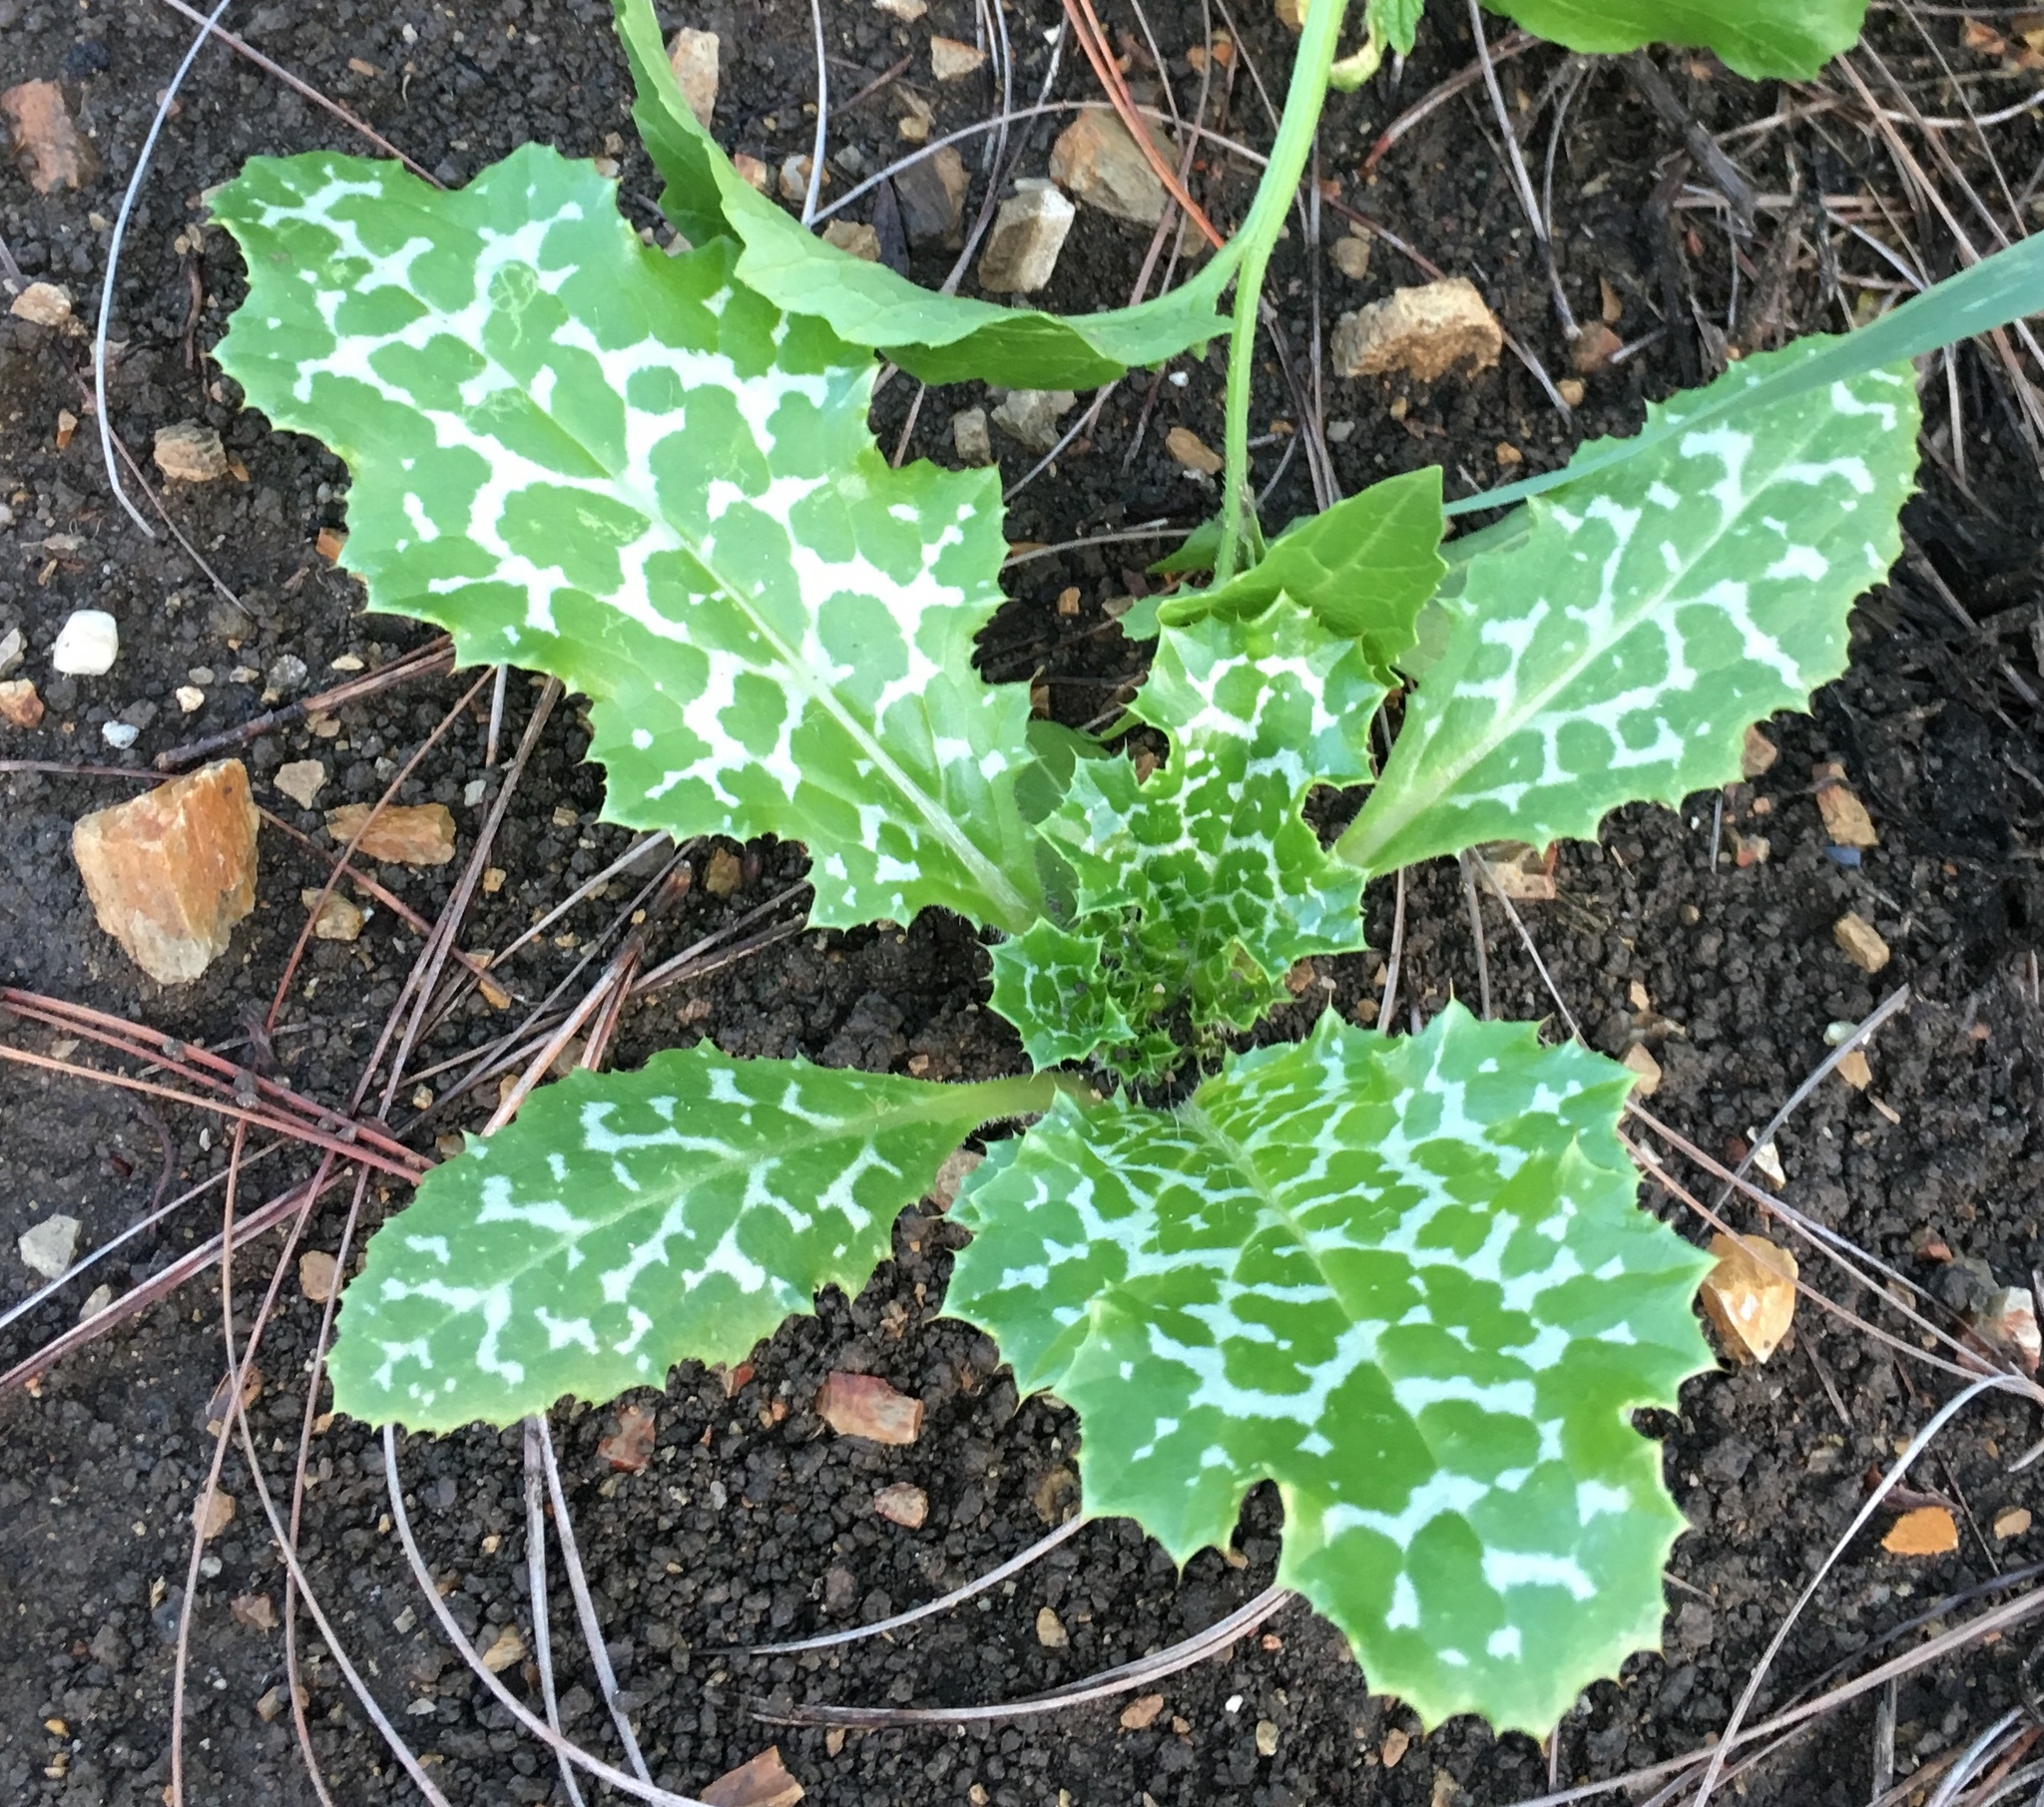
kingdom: Plantae
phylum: Tracheophyta
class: Magnoliopsida
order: Asterales
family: Asteraceae
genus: Silybum
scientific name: Silybum marianum
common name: Milk thistle
